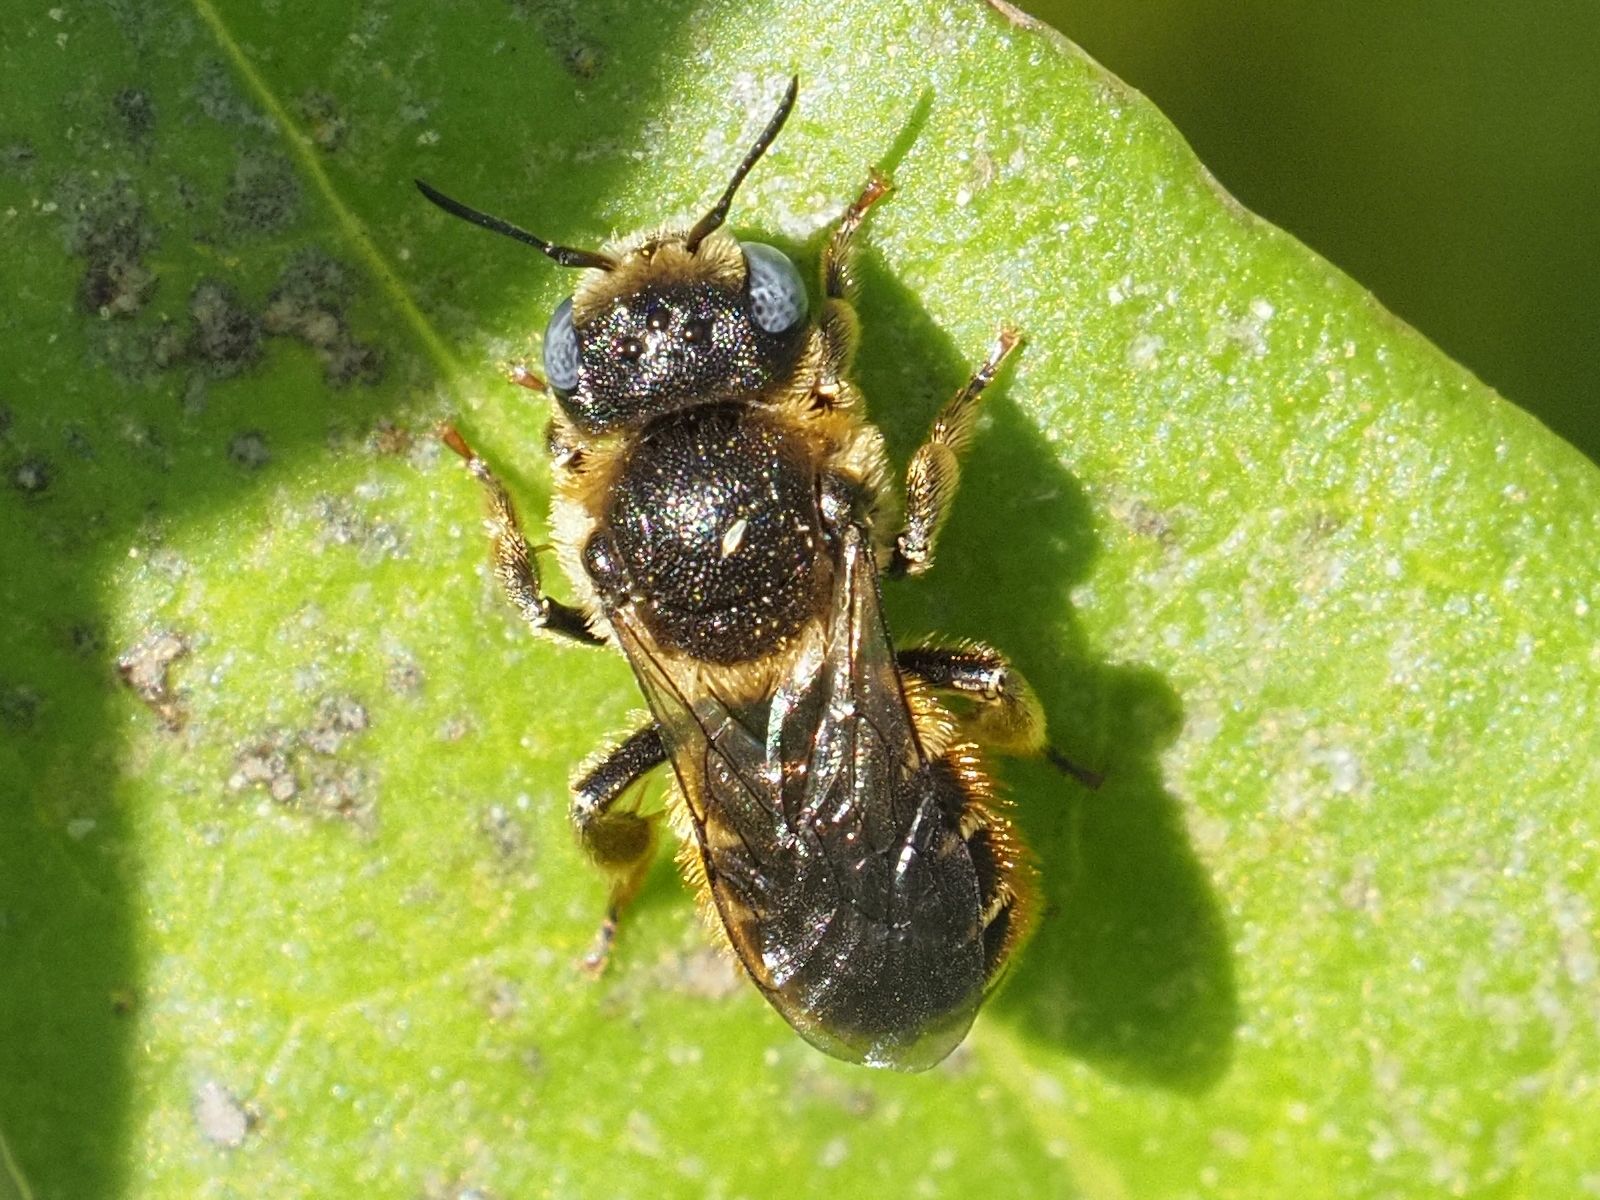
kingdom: Animalia
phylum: Arthropoda
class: Insecta
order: Hymenoptera
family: Megachilidae
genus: Osmia
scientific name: Osmia spinulosa
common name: Spined mason bee
